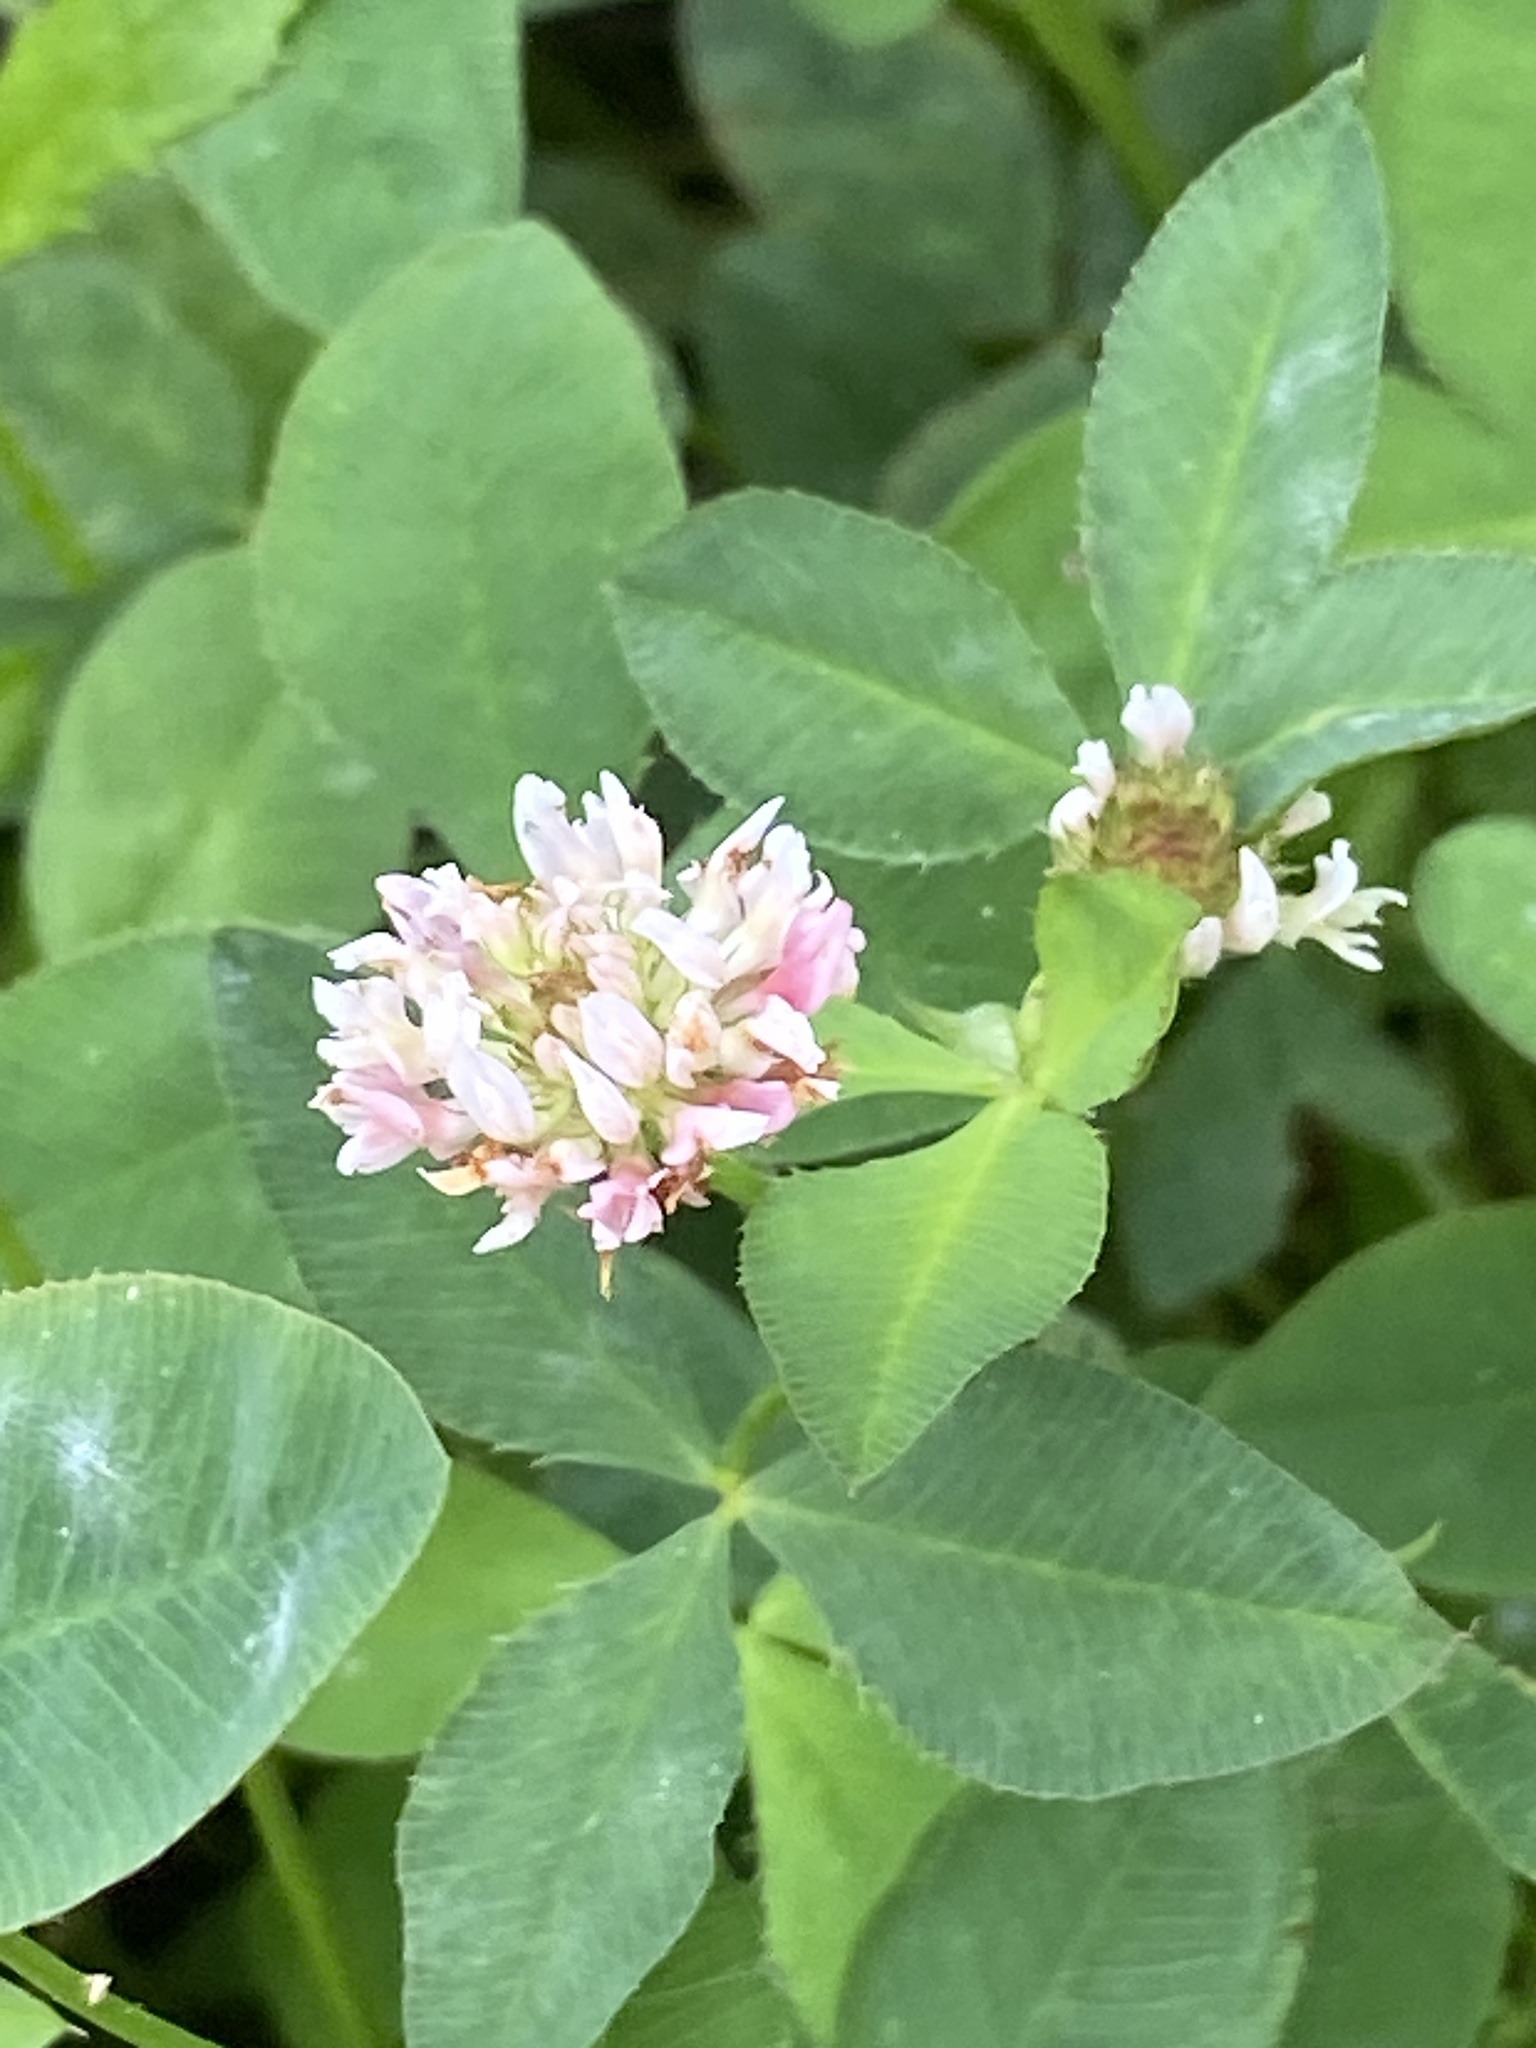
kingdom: Plantae
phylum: Tracheophyta
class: Magnoliopsida
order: Fabales
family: Fabaceae
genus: Trifolium
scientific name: Trifolium hybridum
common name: Alsike clover
